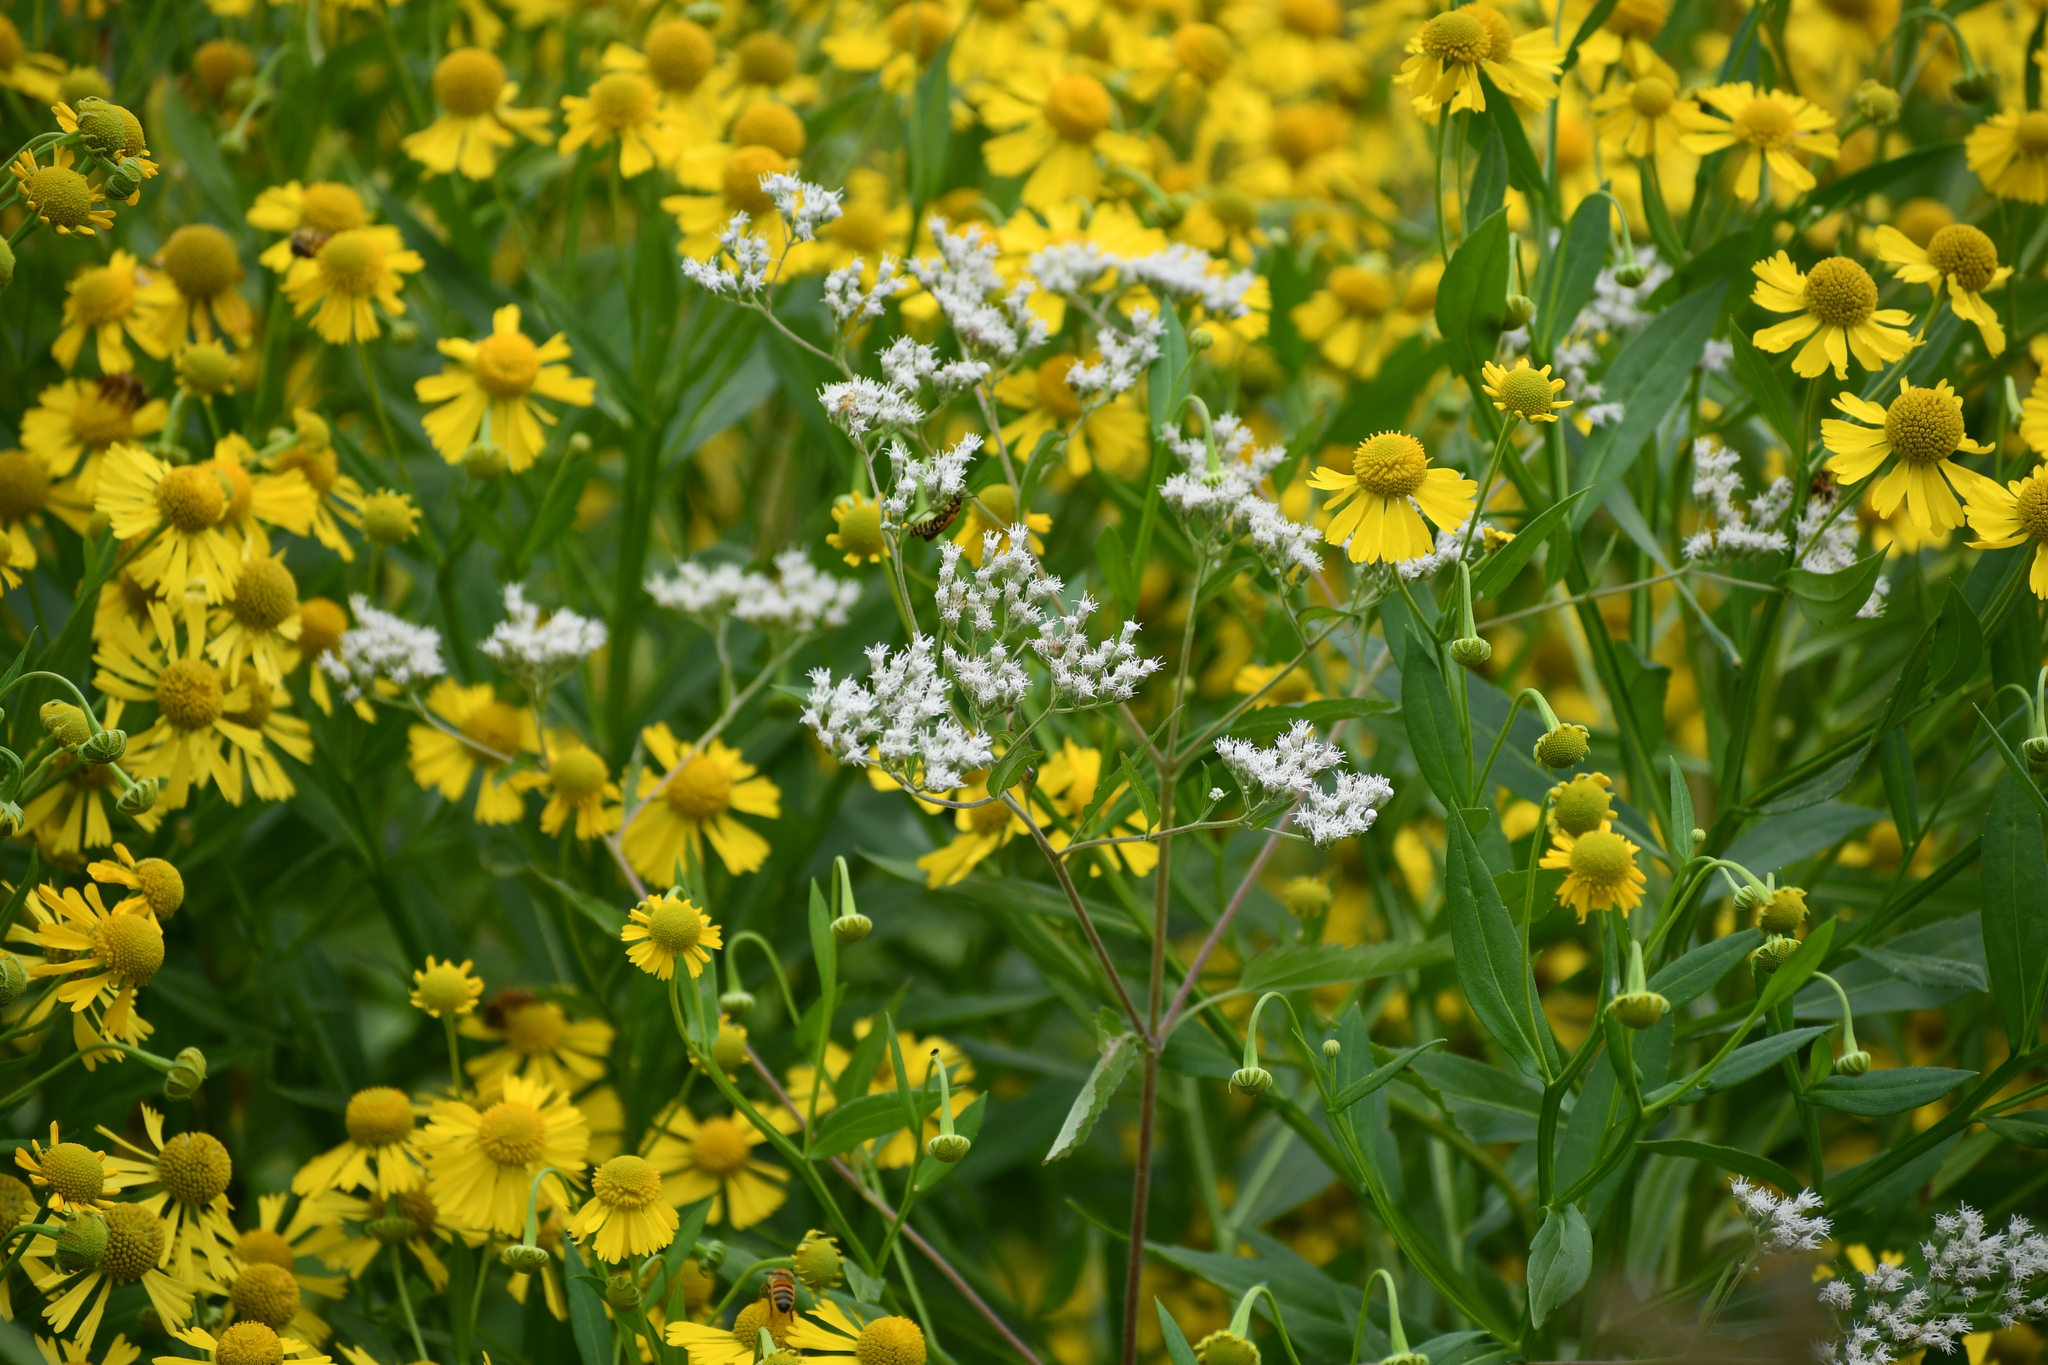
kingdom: Plantae
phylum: Tracheophyta
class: Magnoliopsida
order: Asterales
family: Asteraceae
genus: Eupatorium
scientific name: Eupatorium serotinum
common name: Late boneset
